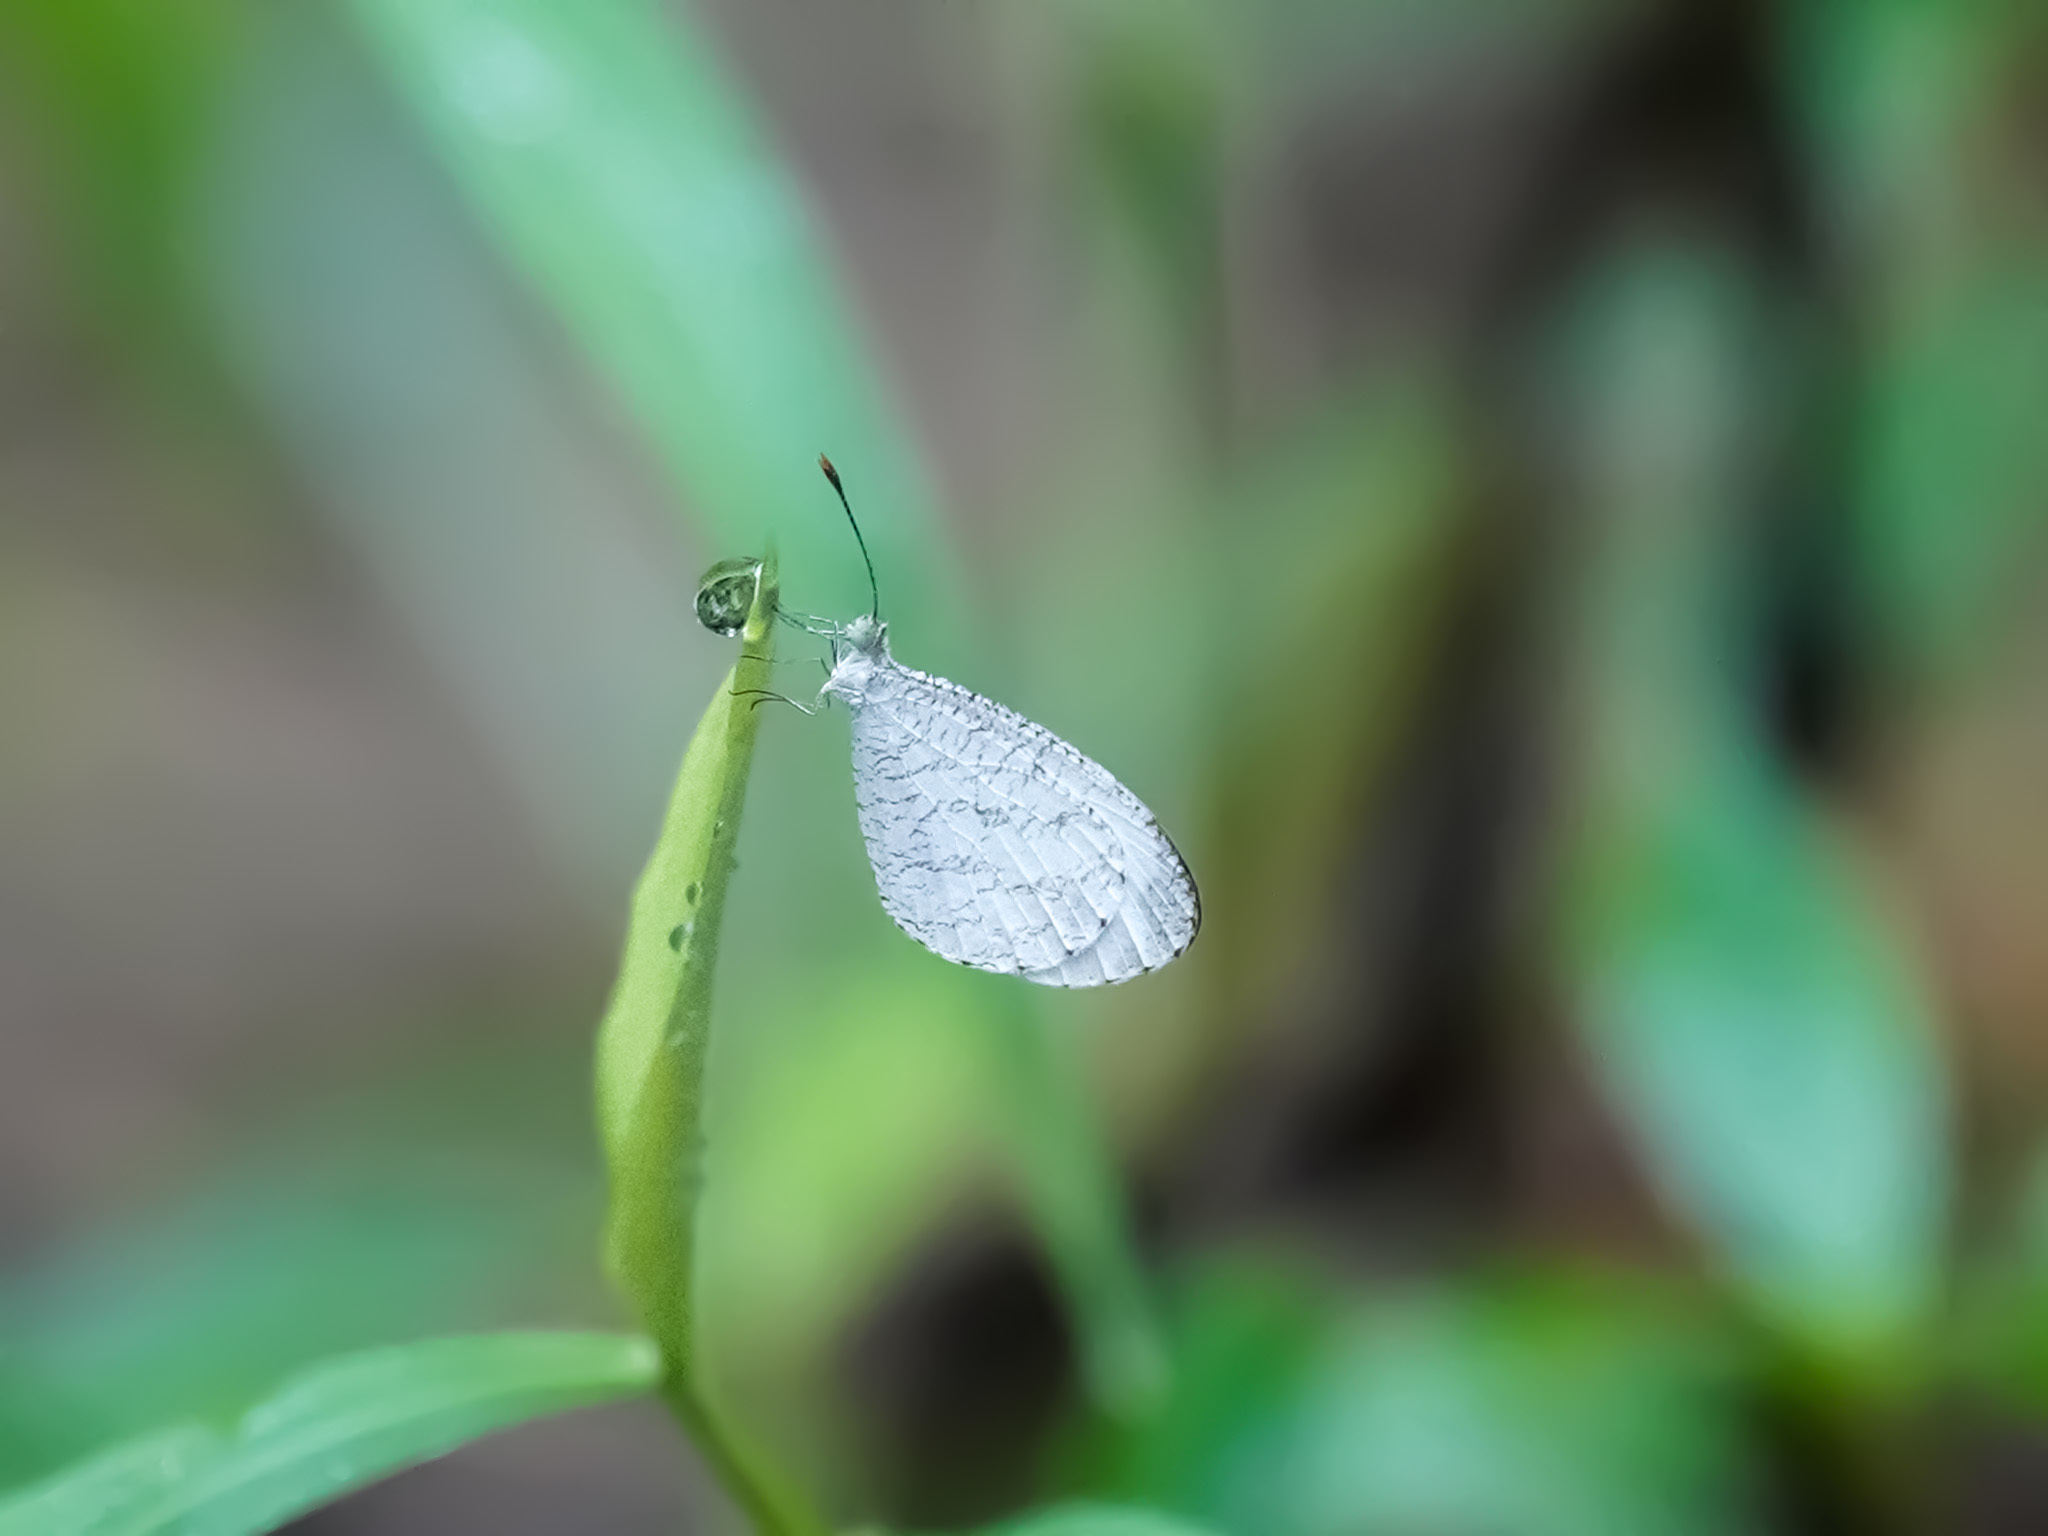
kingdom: Animalia
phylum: Arthropoda
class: Insecta
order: Lepidoptera
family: Pieridae
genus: Leptosia
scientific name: Leptosia nina
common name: Psyche
